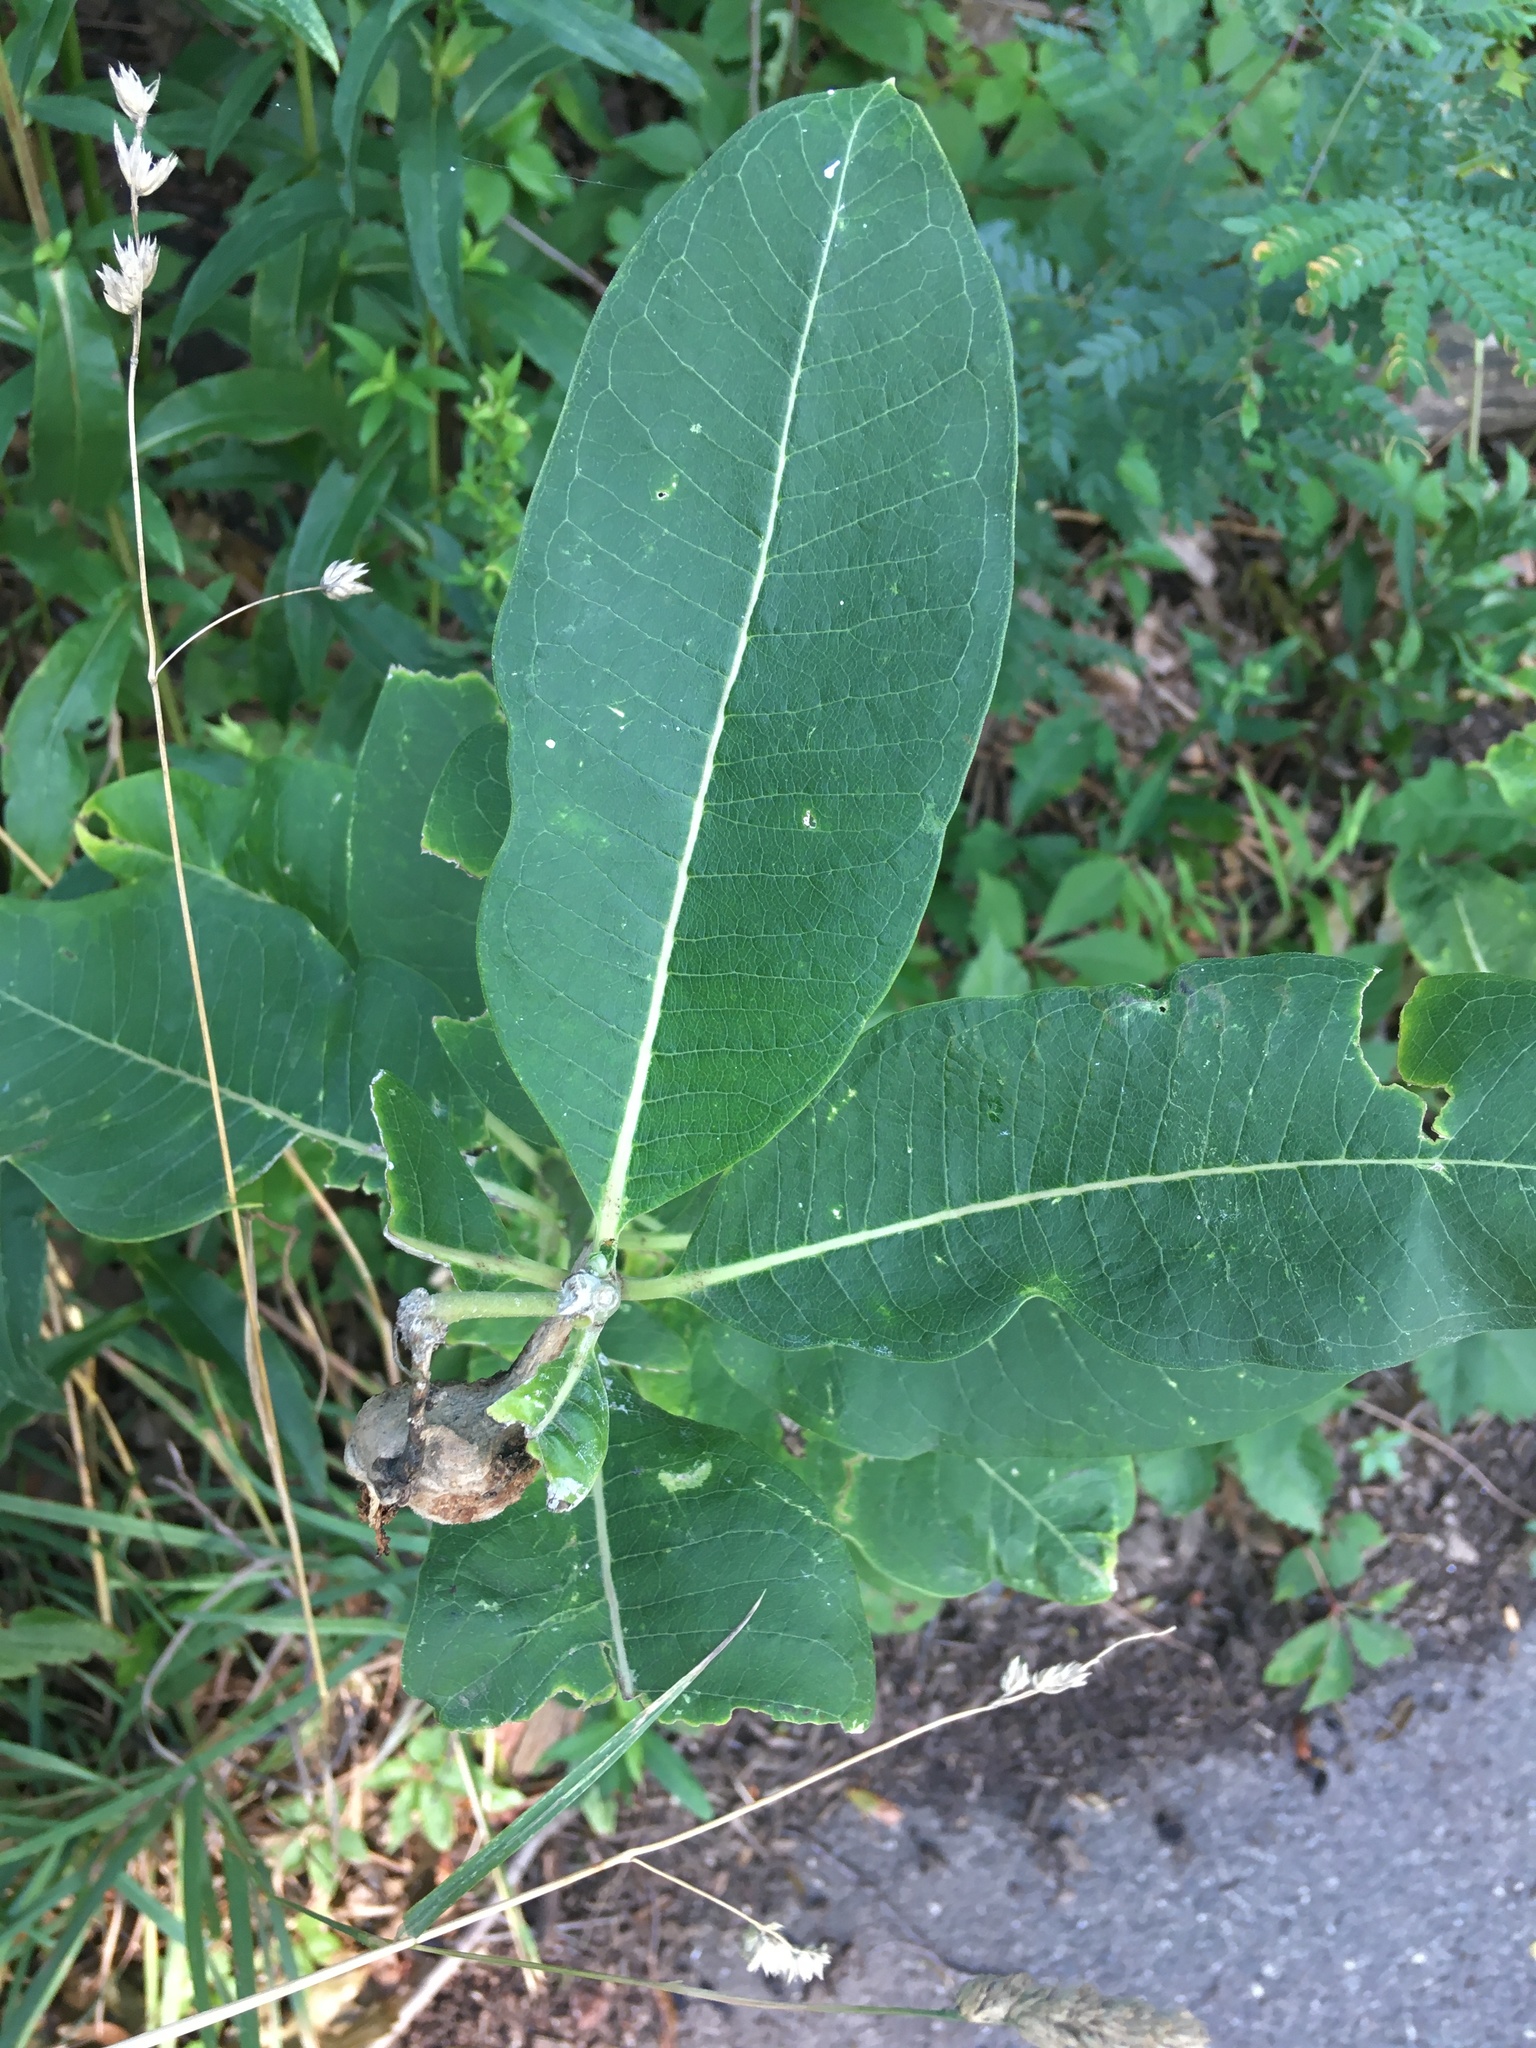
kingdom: Plantae
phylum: Tracheophyta
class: Magnoliopsida
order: Gentianales
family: Apocynaceae
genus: Asclepias
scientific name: Asclepias syriaca
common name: Common milkweed
